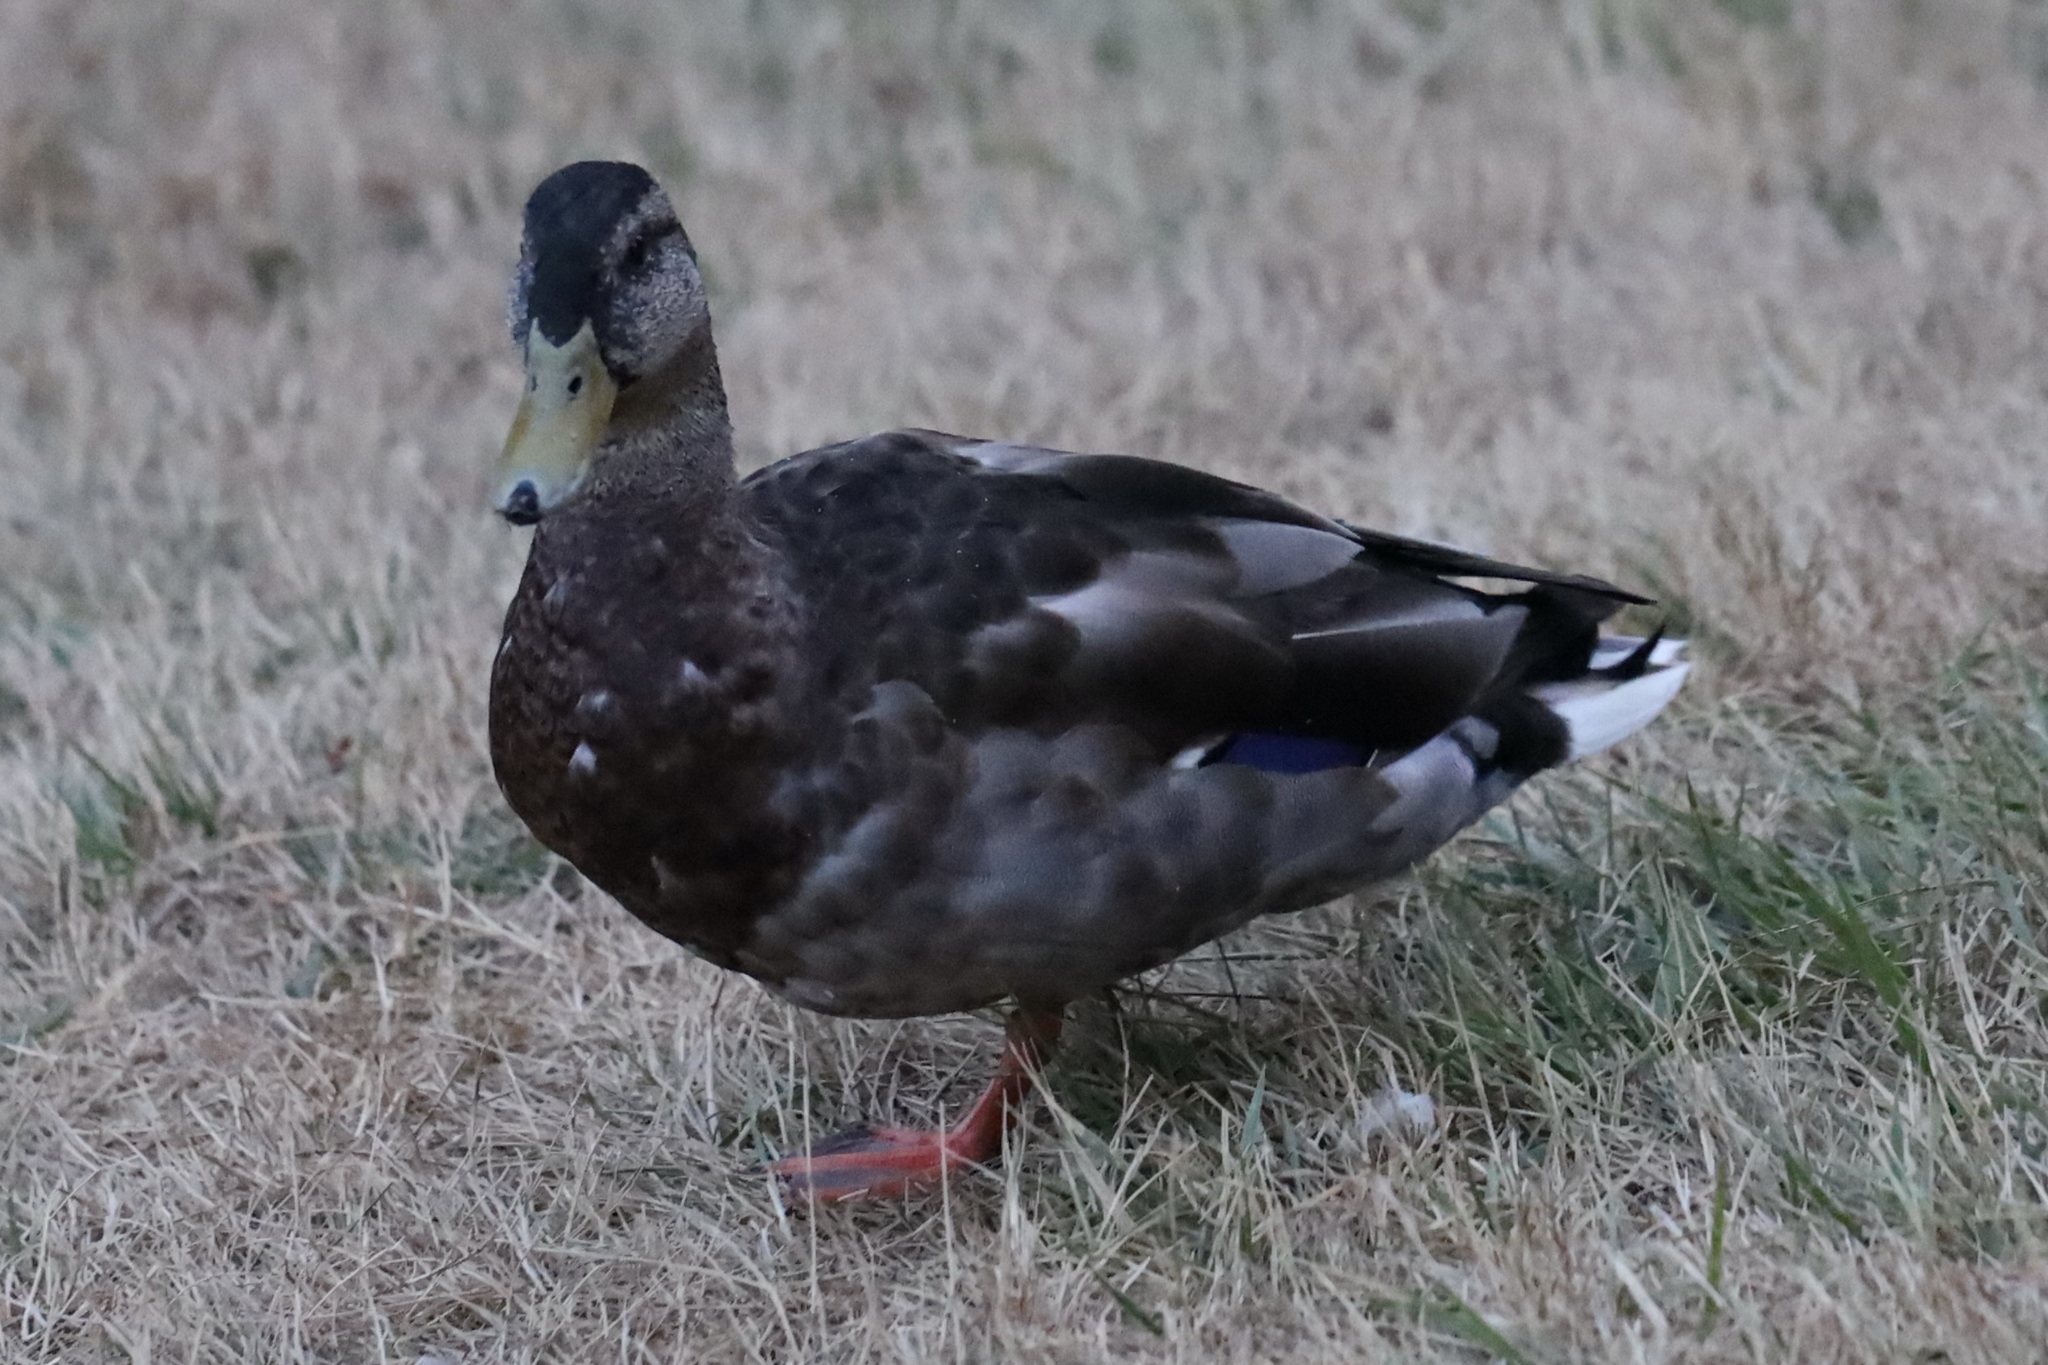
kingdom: Animalia
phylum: Chordata
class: Aves
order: Anseriformes
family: Anatidae
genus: Anas
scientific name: Anas platyrhynchos
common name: Mallard
